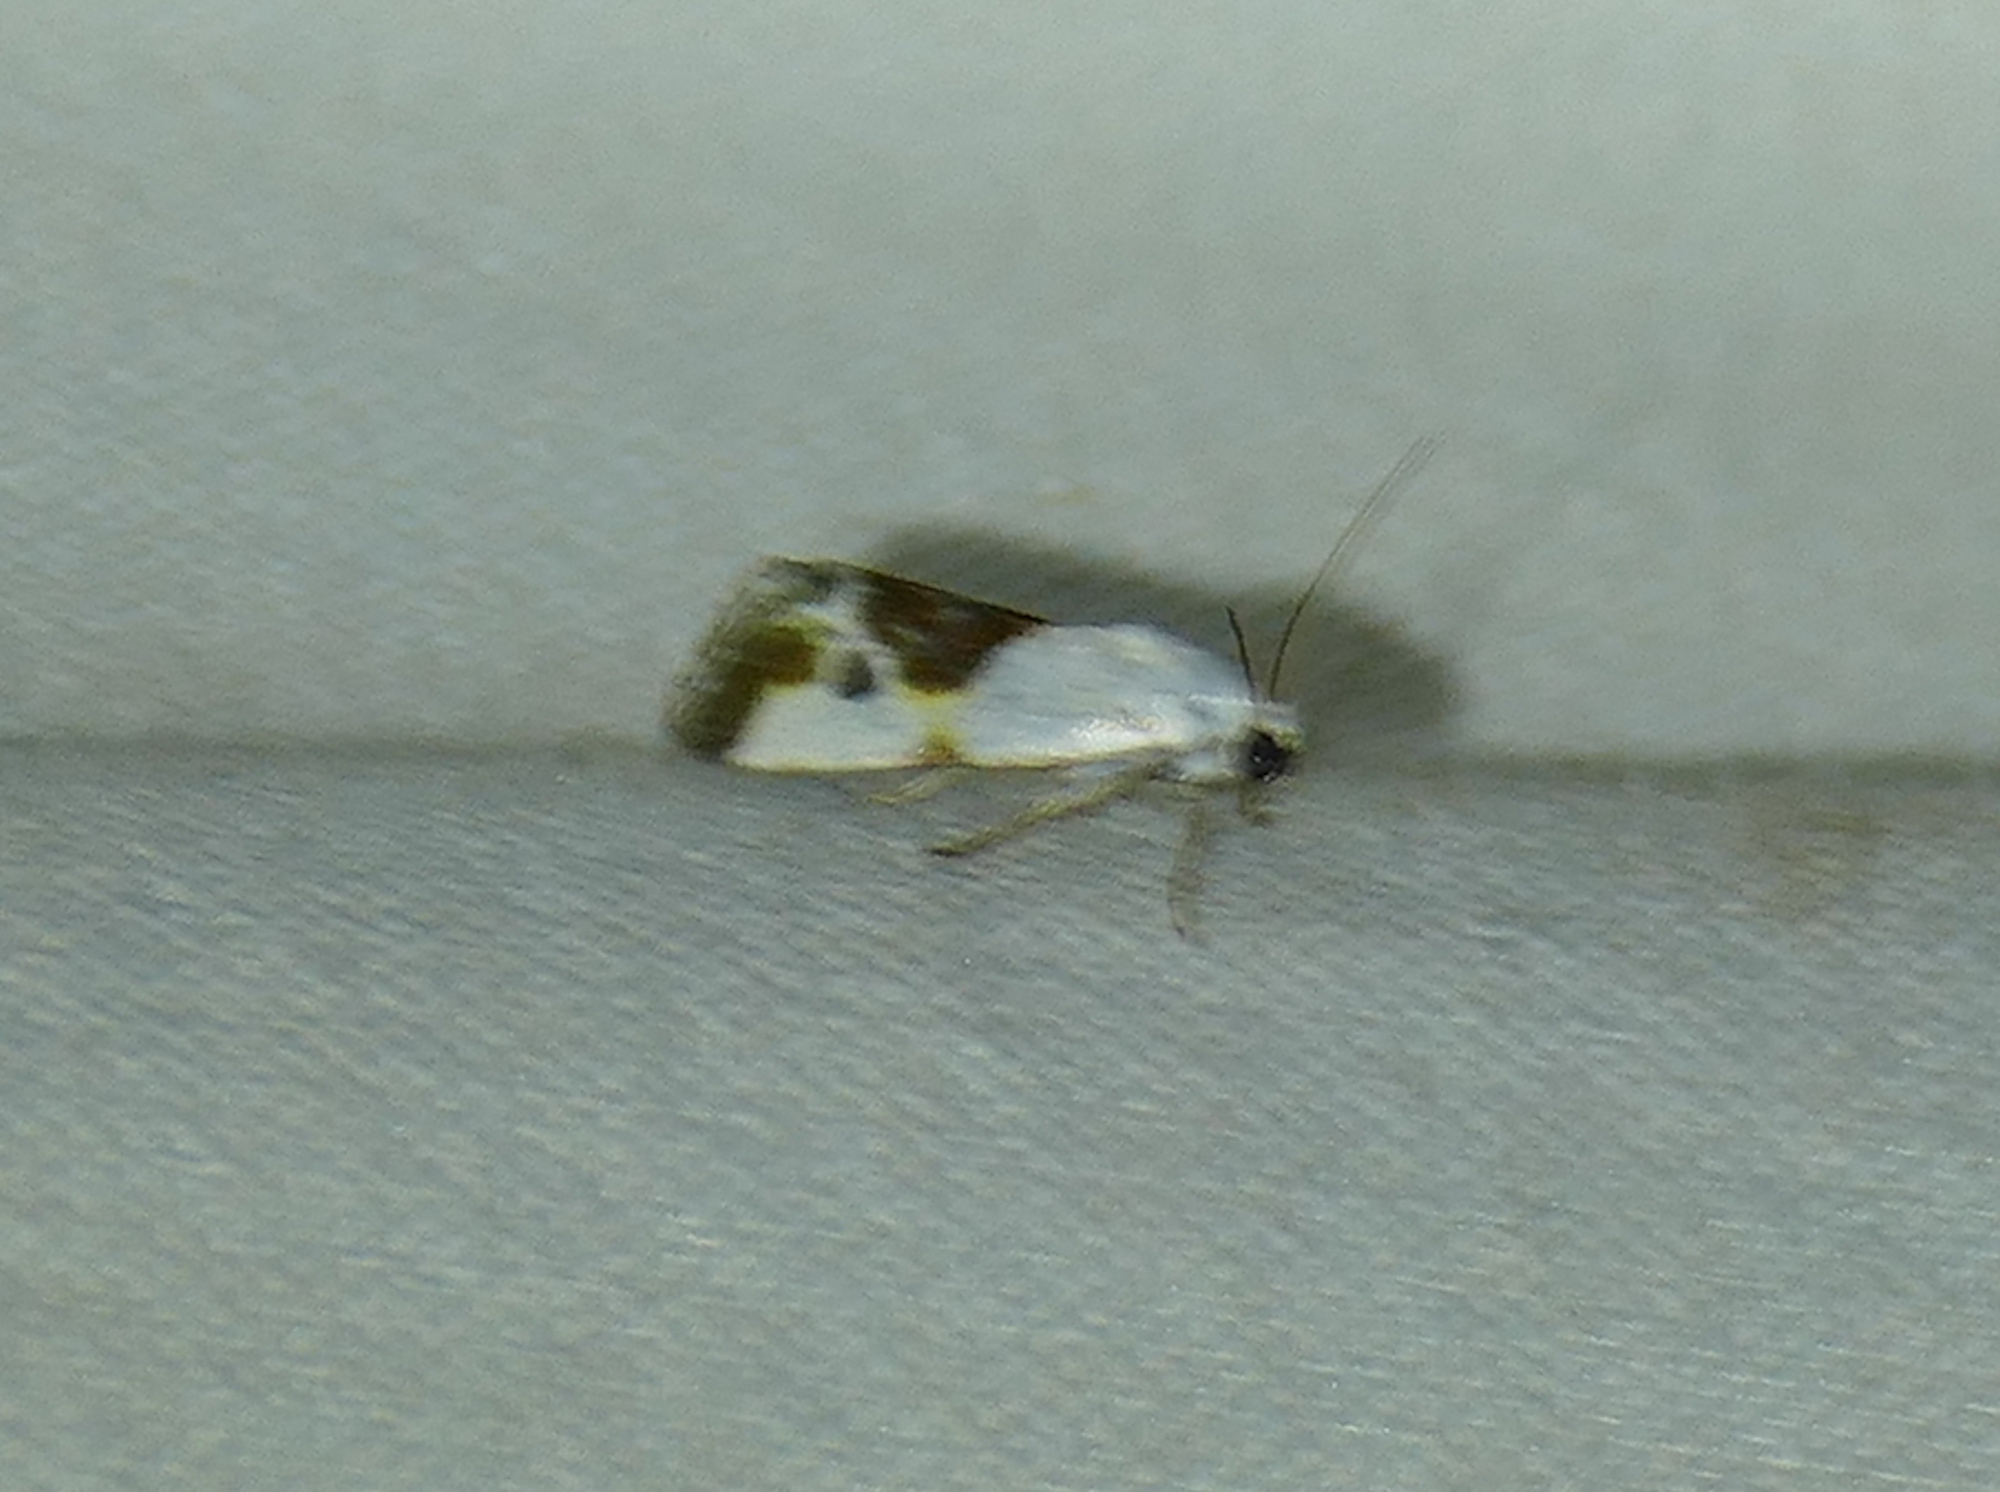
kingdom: Animalia
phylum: Arthropoda
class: Insecta
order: Lepidoptera
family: Noctuidae
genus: Acontia
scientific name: Acontia candefacta
